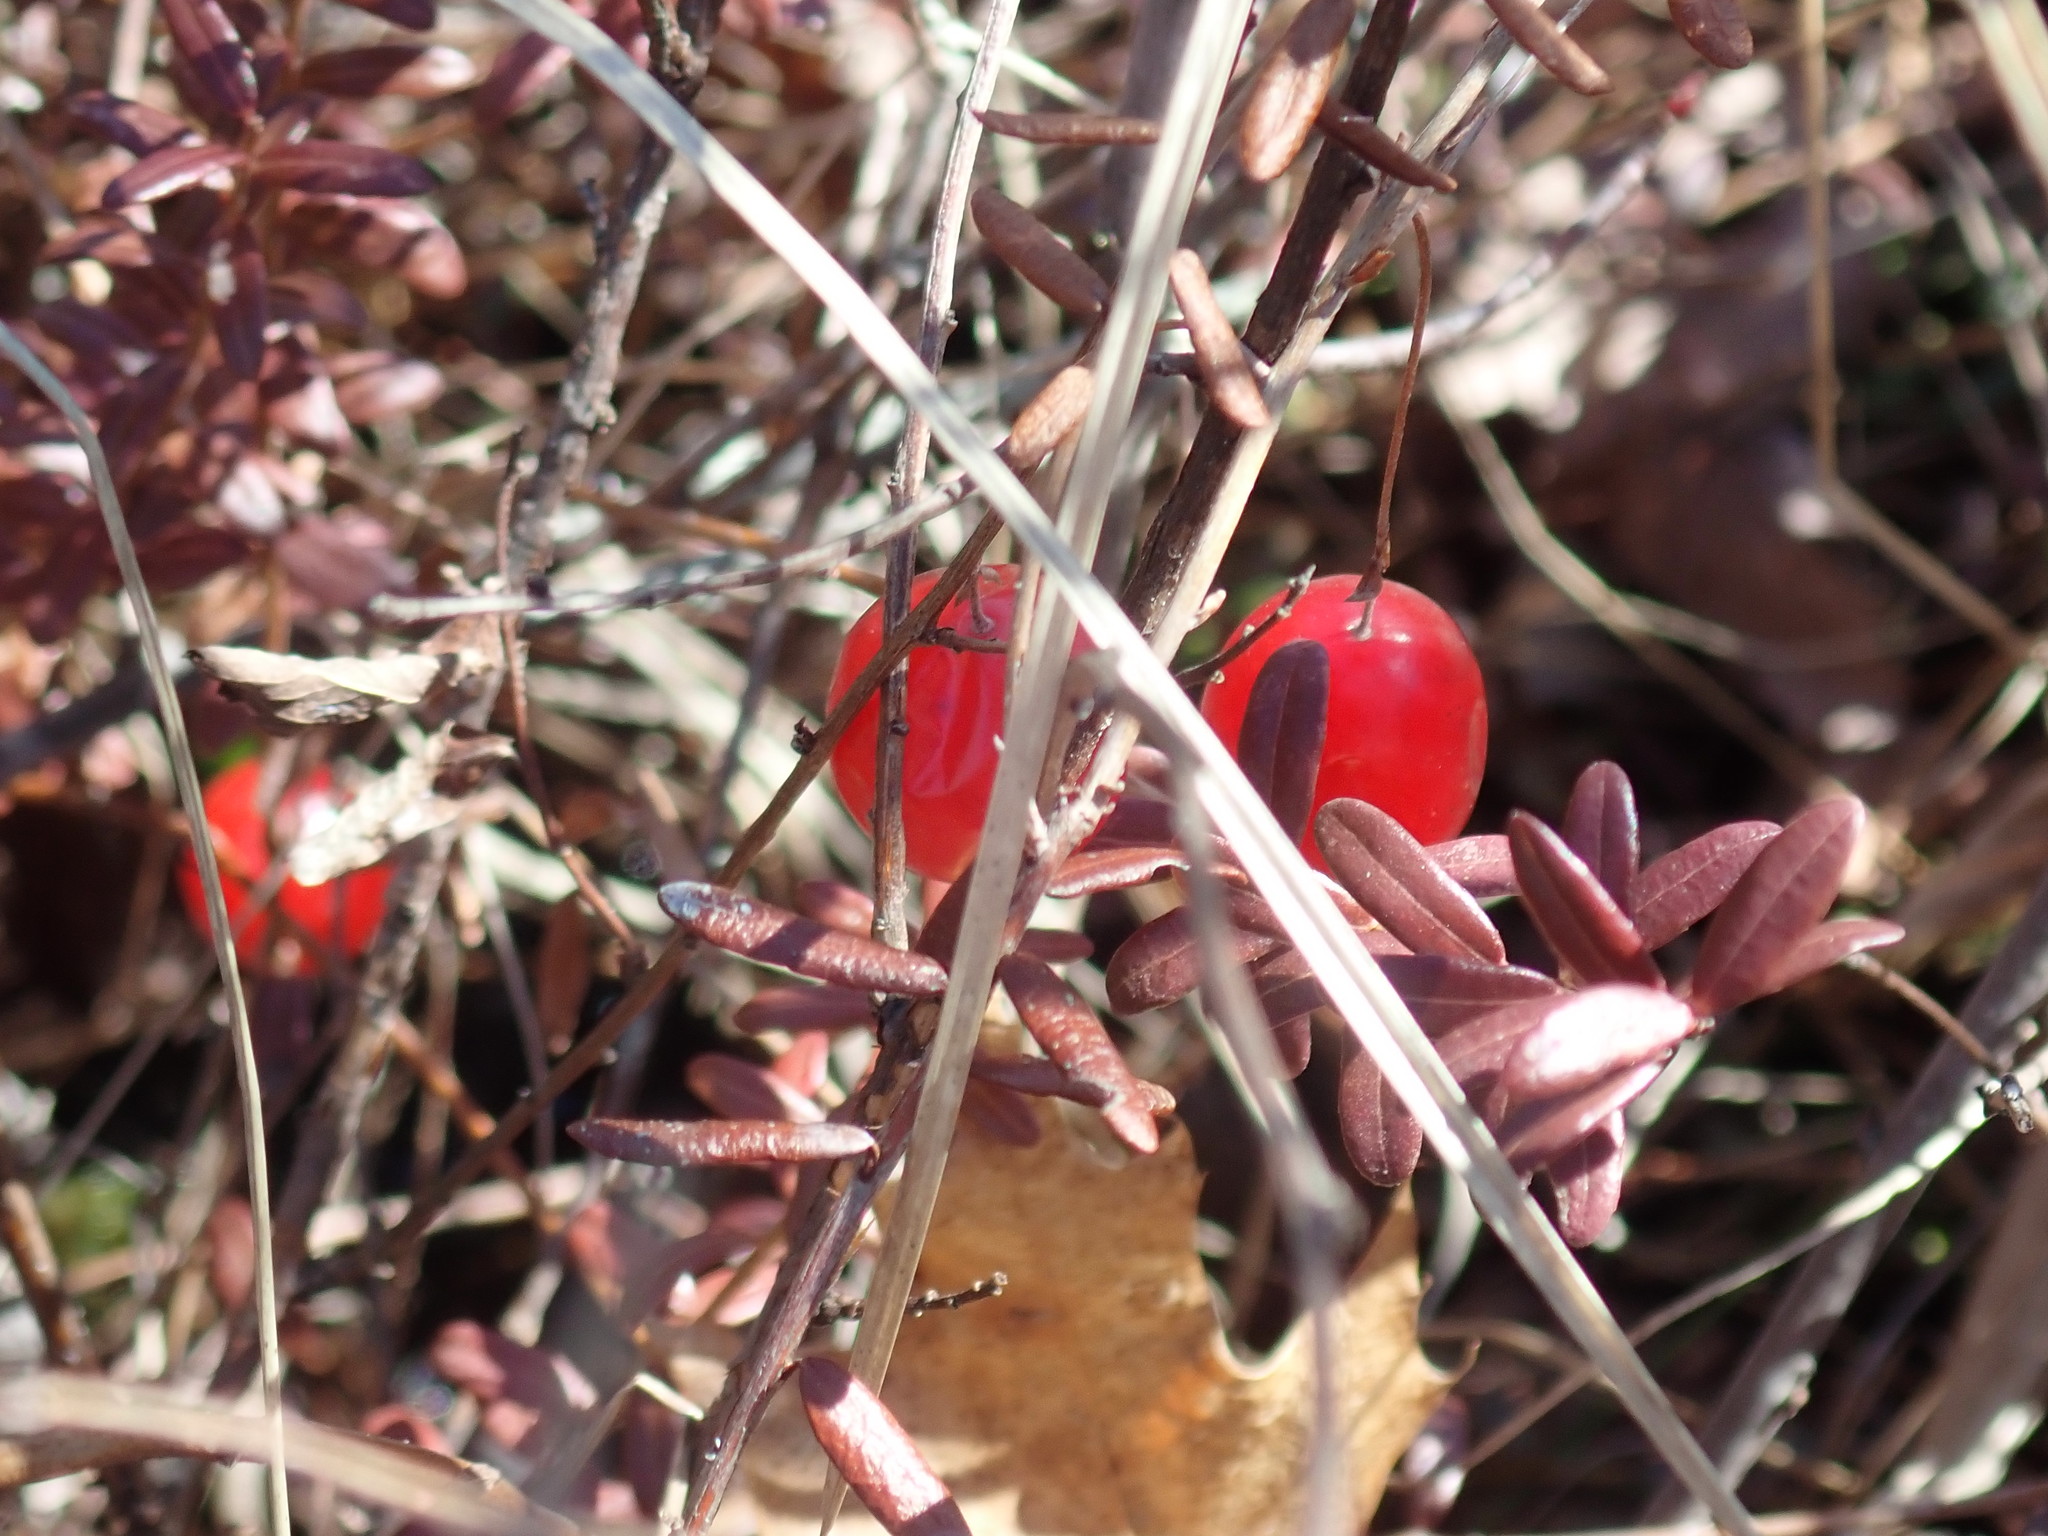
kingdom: Plantae
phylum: Tracheophyta
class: Magnoliopsida
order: Ericales
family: Ericaceae
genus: Vaccinium
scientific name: Vaccinium macrocarpon
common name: American cranberry
